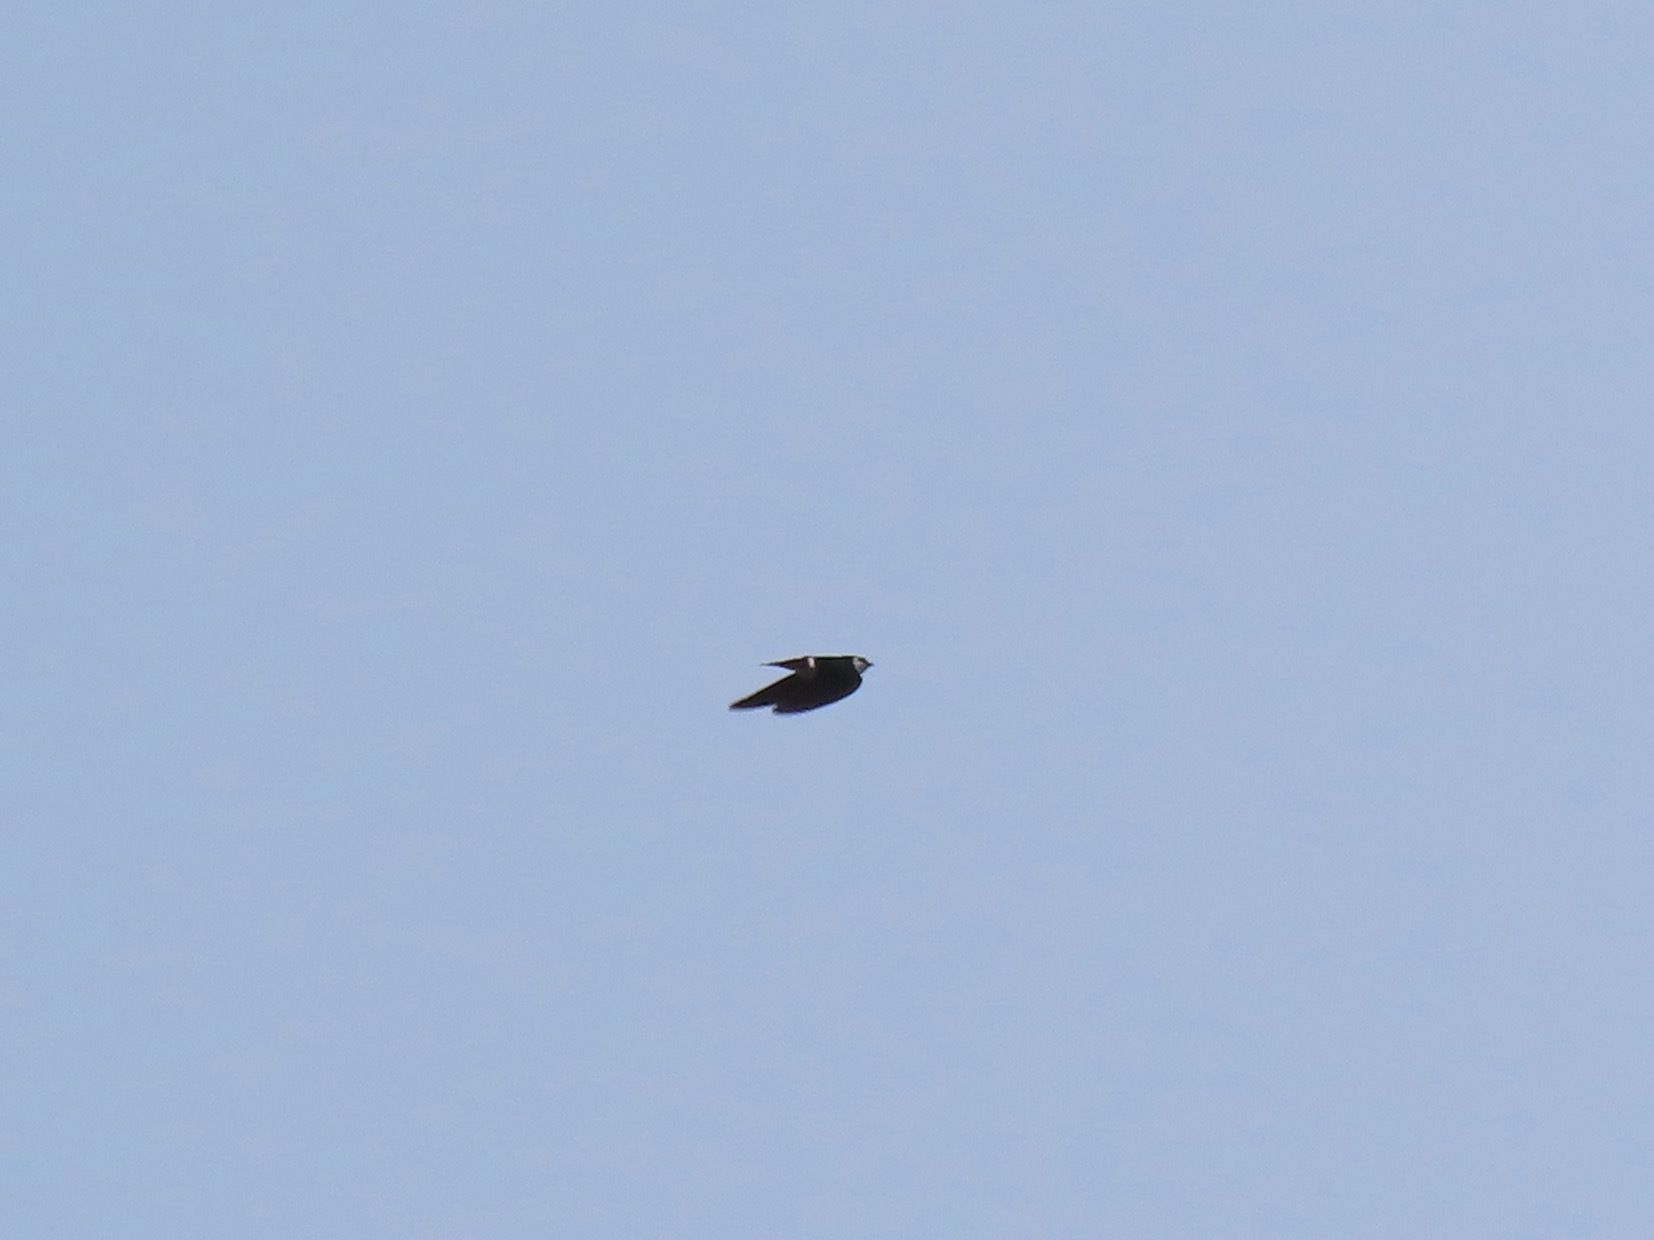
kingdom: Animalia
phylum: Chordata
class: Aves
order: Passeriformes
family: Hirundinidae
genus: Tachycineta
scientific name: Tachycineta thalassina
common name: Violet-green swallow
